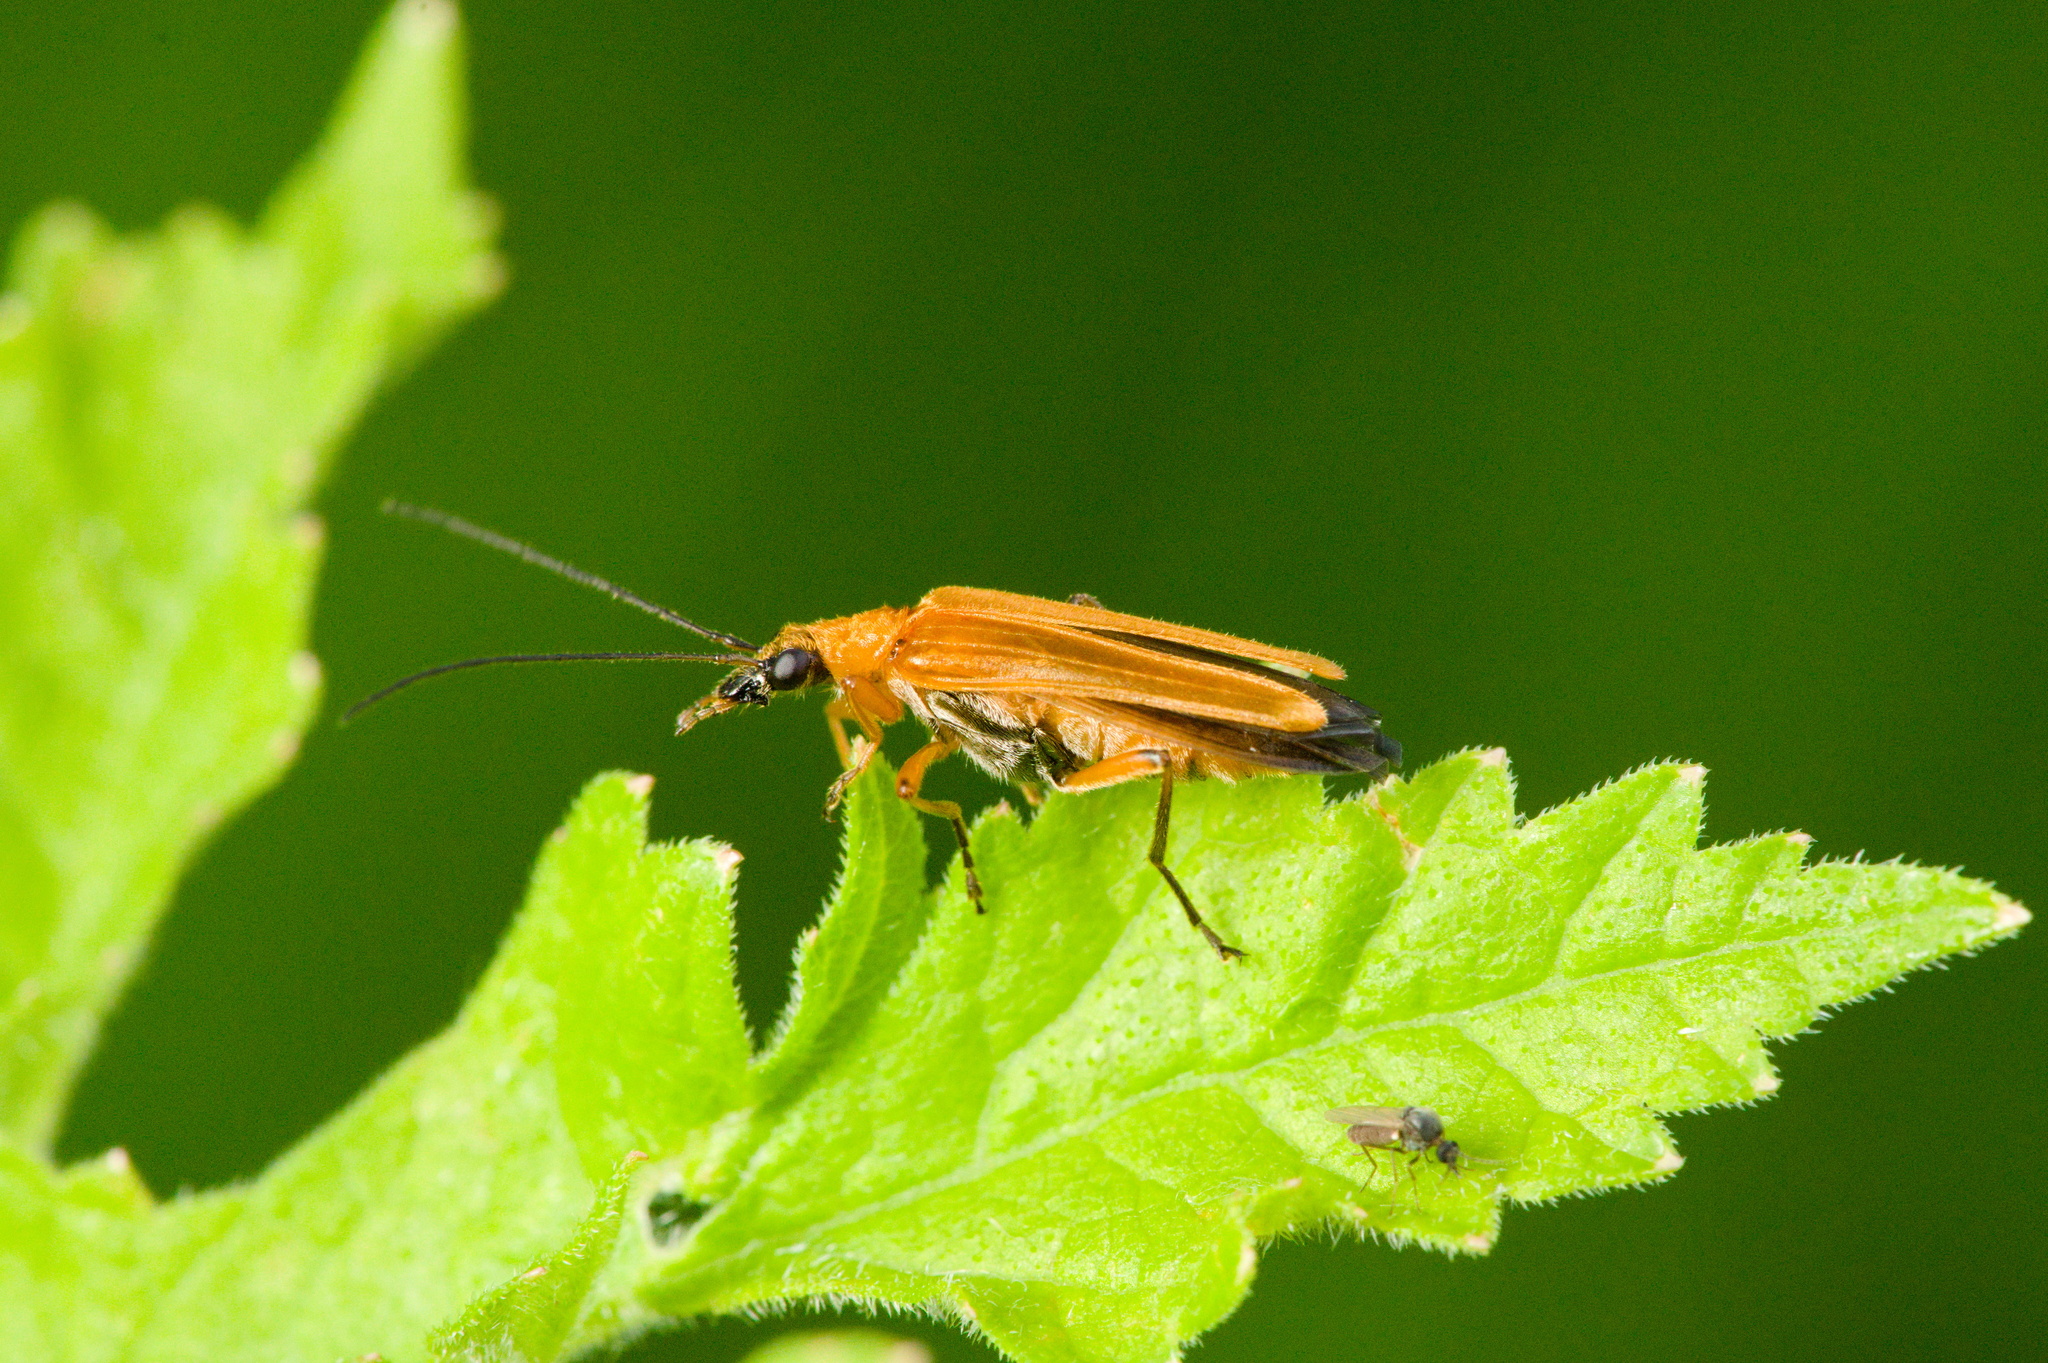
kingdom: Animalia
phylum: Arthropoda
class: Insecta
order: Coleoptera
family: Oedemeridae
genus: Oedemera
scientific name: Oedemera podagrariae
